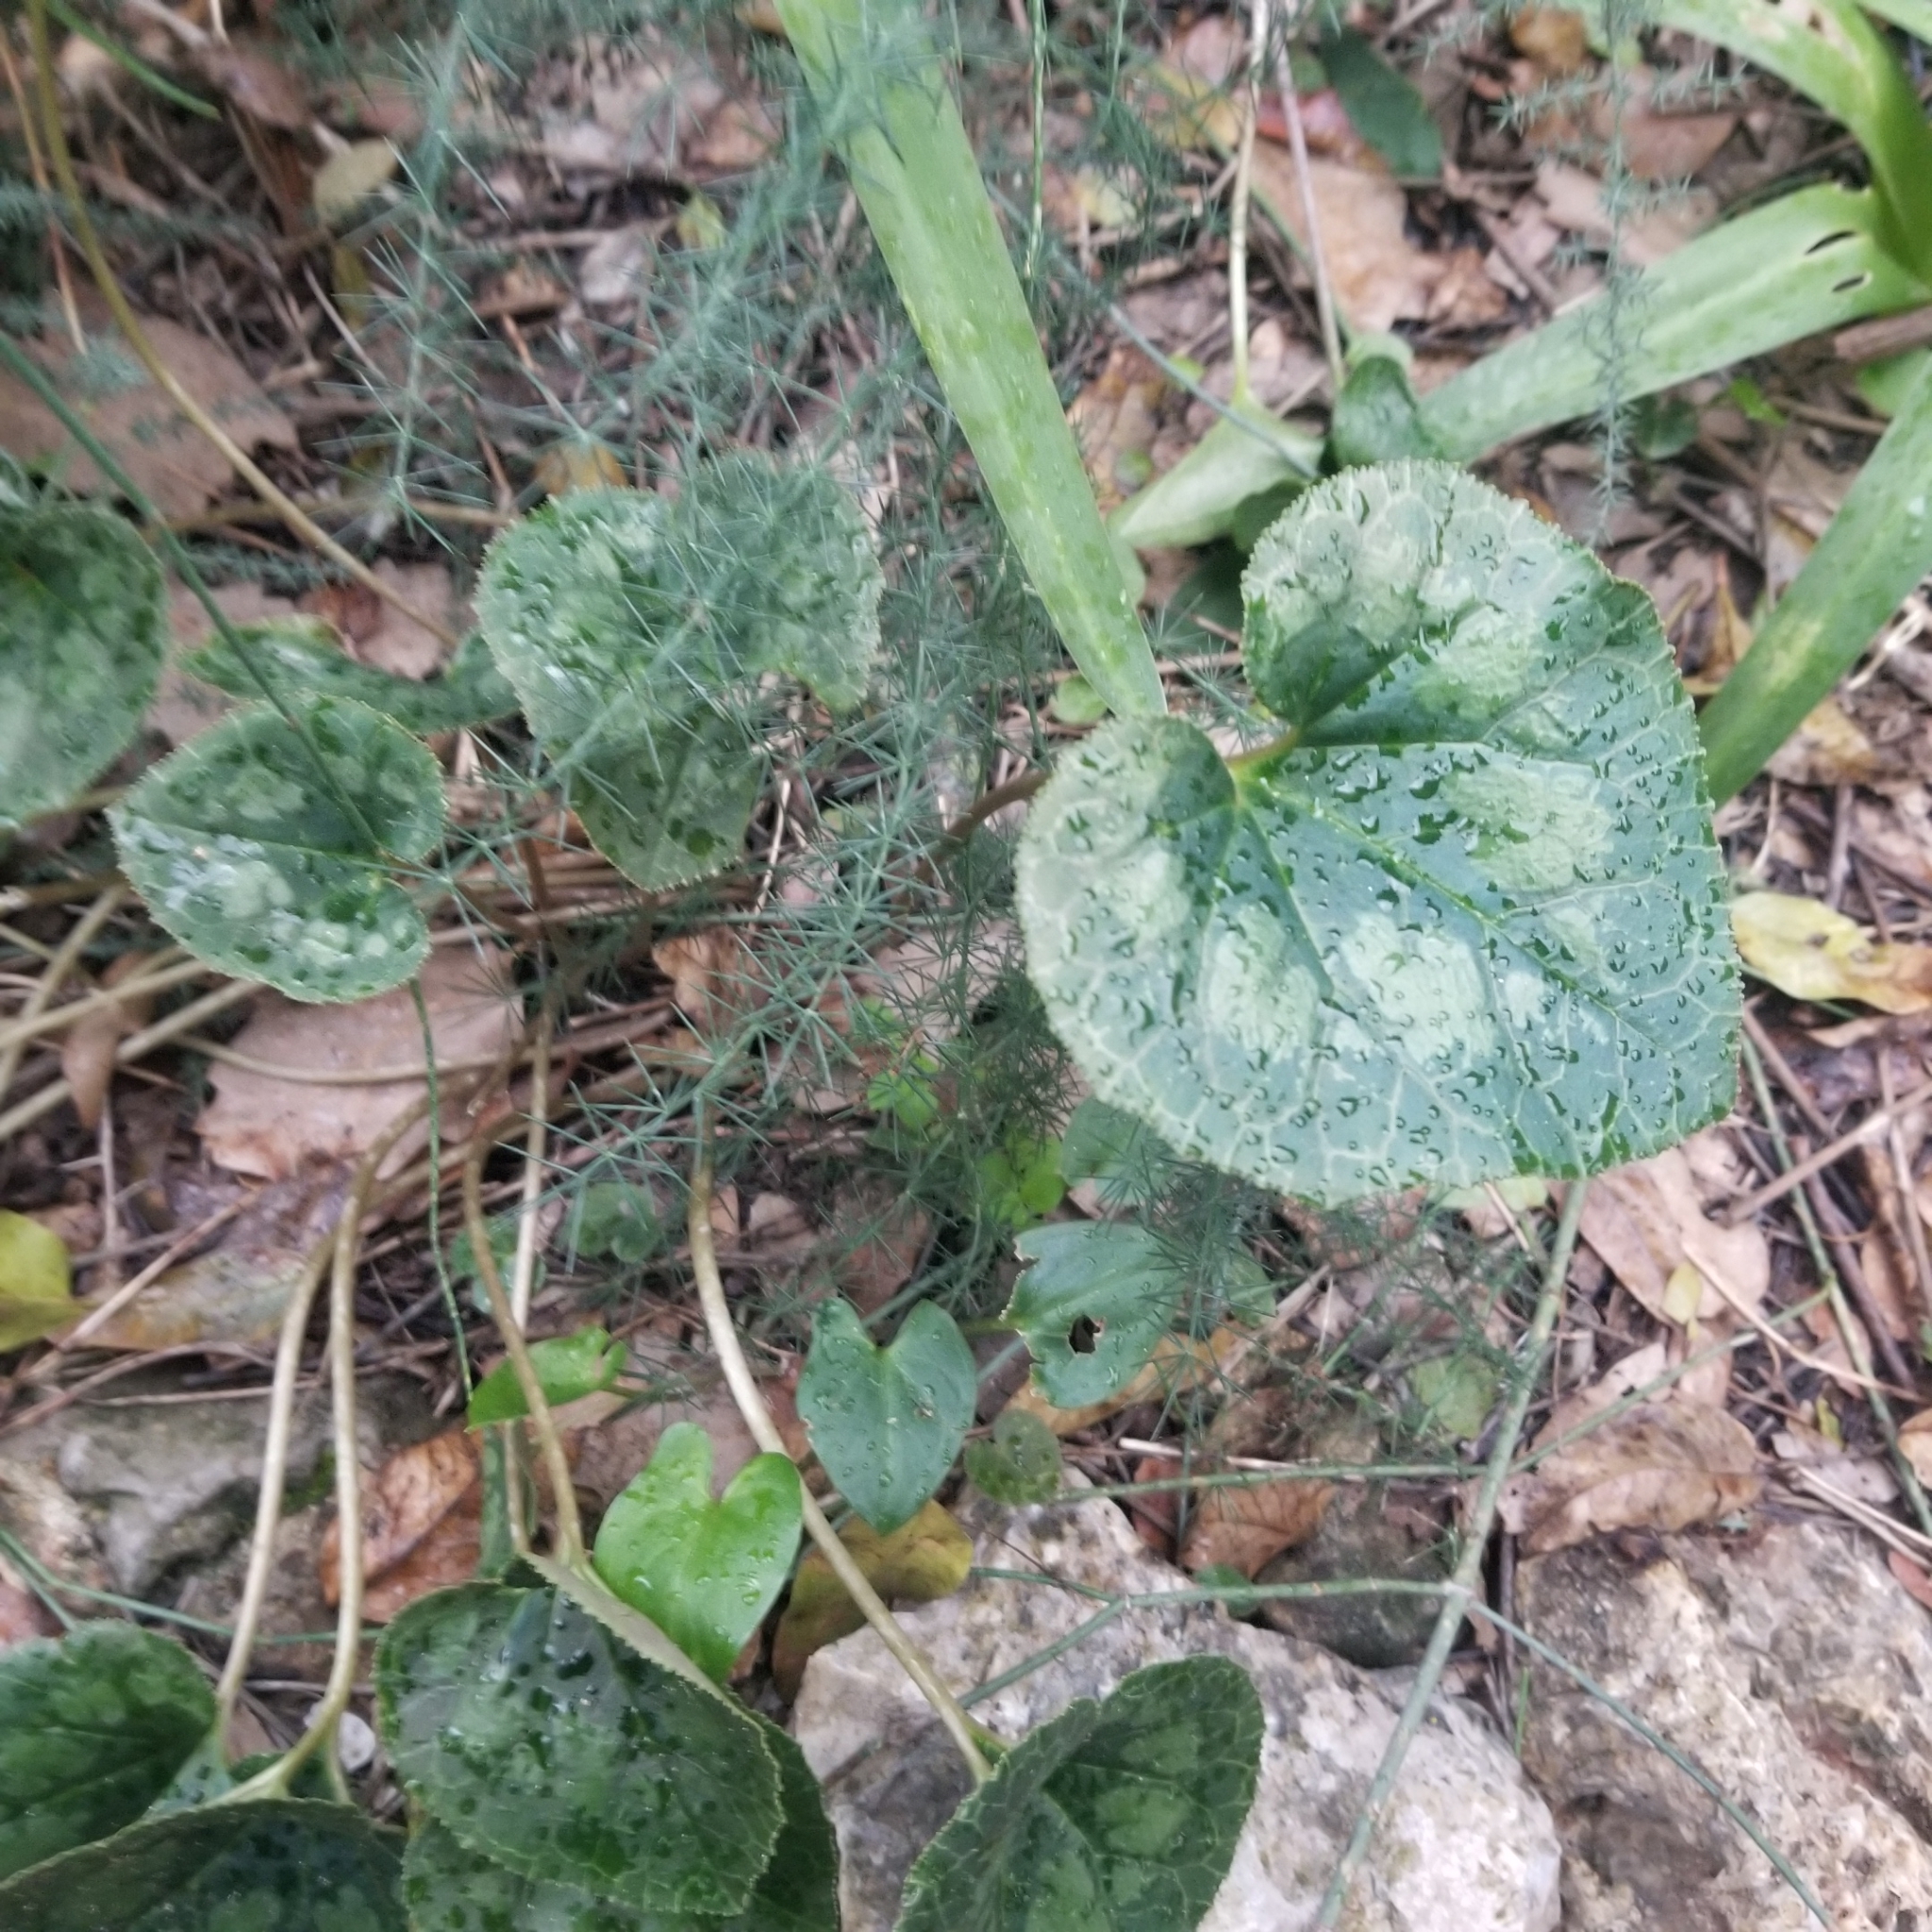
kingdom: Plantae
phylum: Tracheophyta
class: Magnoliopsida
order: Ericales
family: Primulaceae
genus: Cyclamen
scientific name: Cyclamen persicum
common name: Florist's cyclamen
